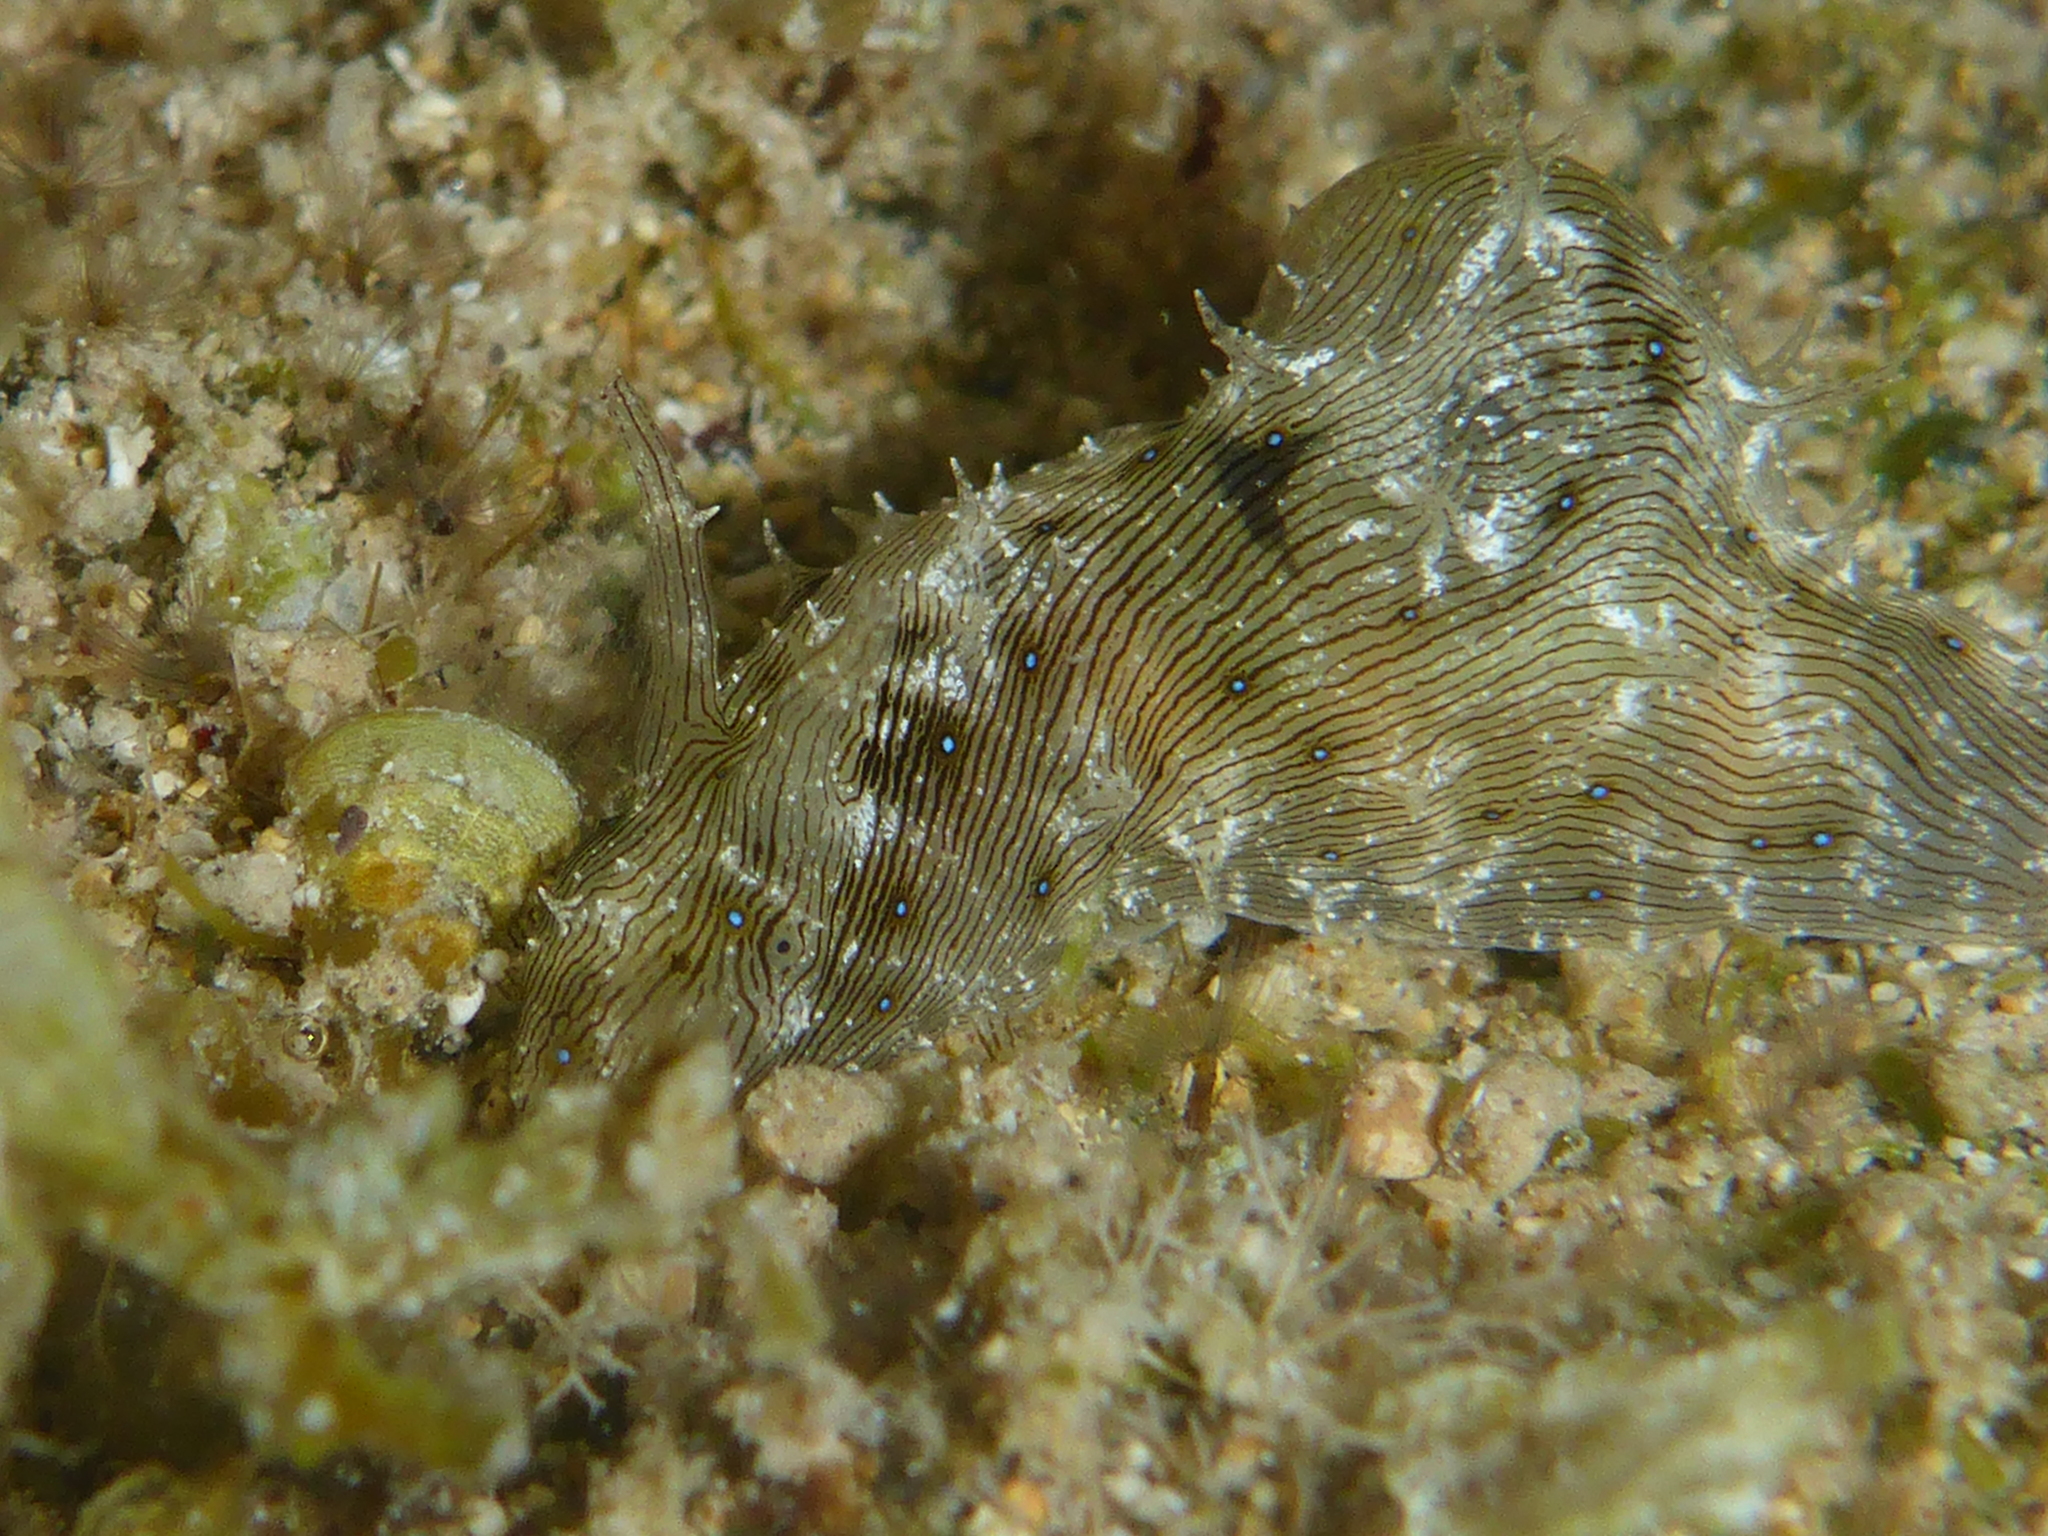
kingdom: Animalia
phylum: Mollusca
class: Gastropoda
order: Aplysiida
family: Aplysiidae
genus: Stylocheilus
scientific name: Stylocheilus striatus
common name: Striated seahare
